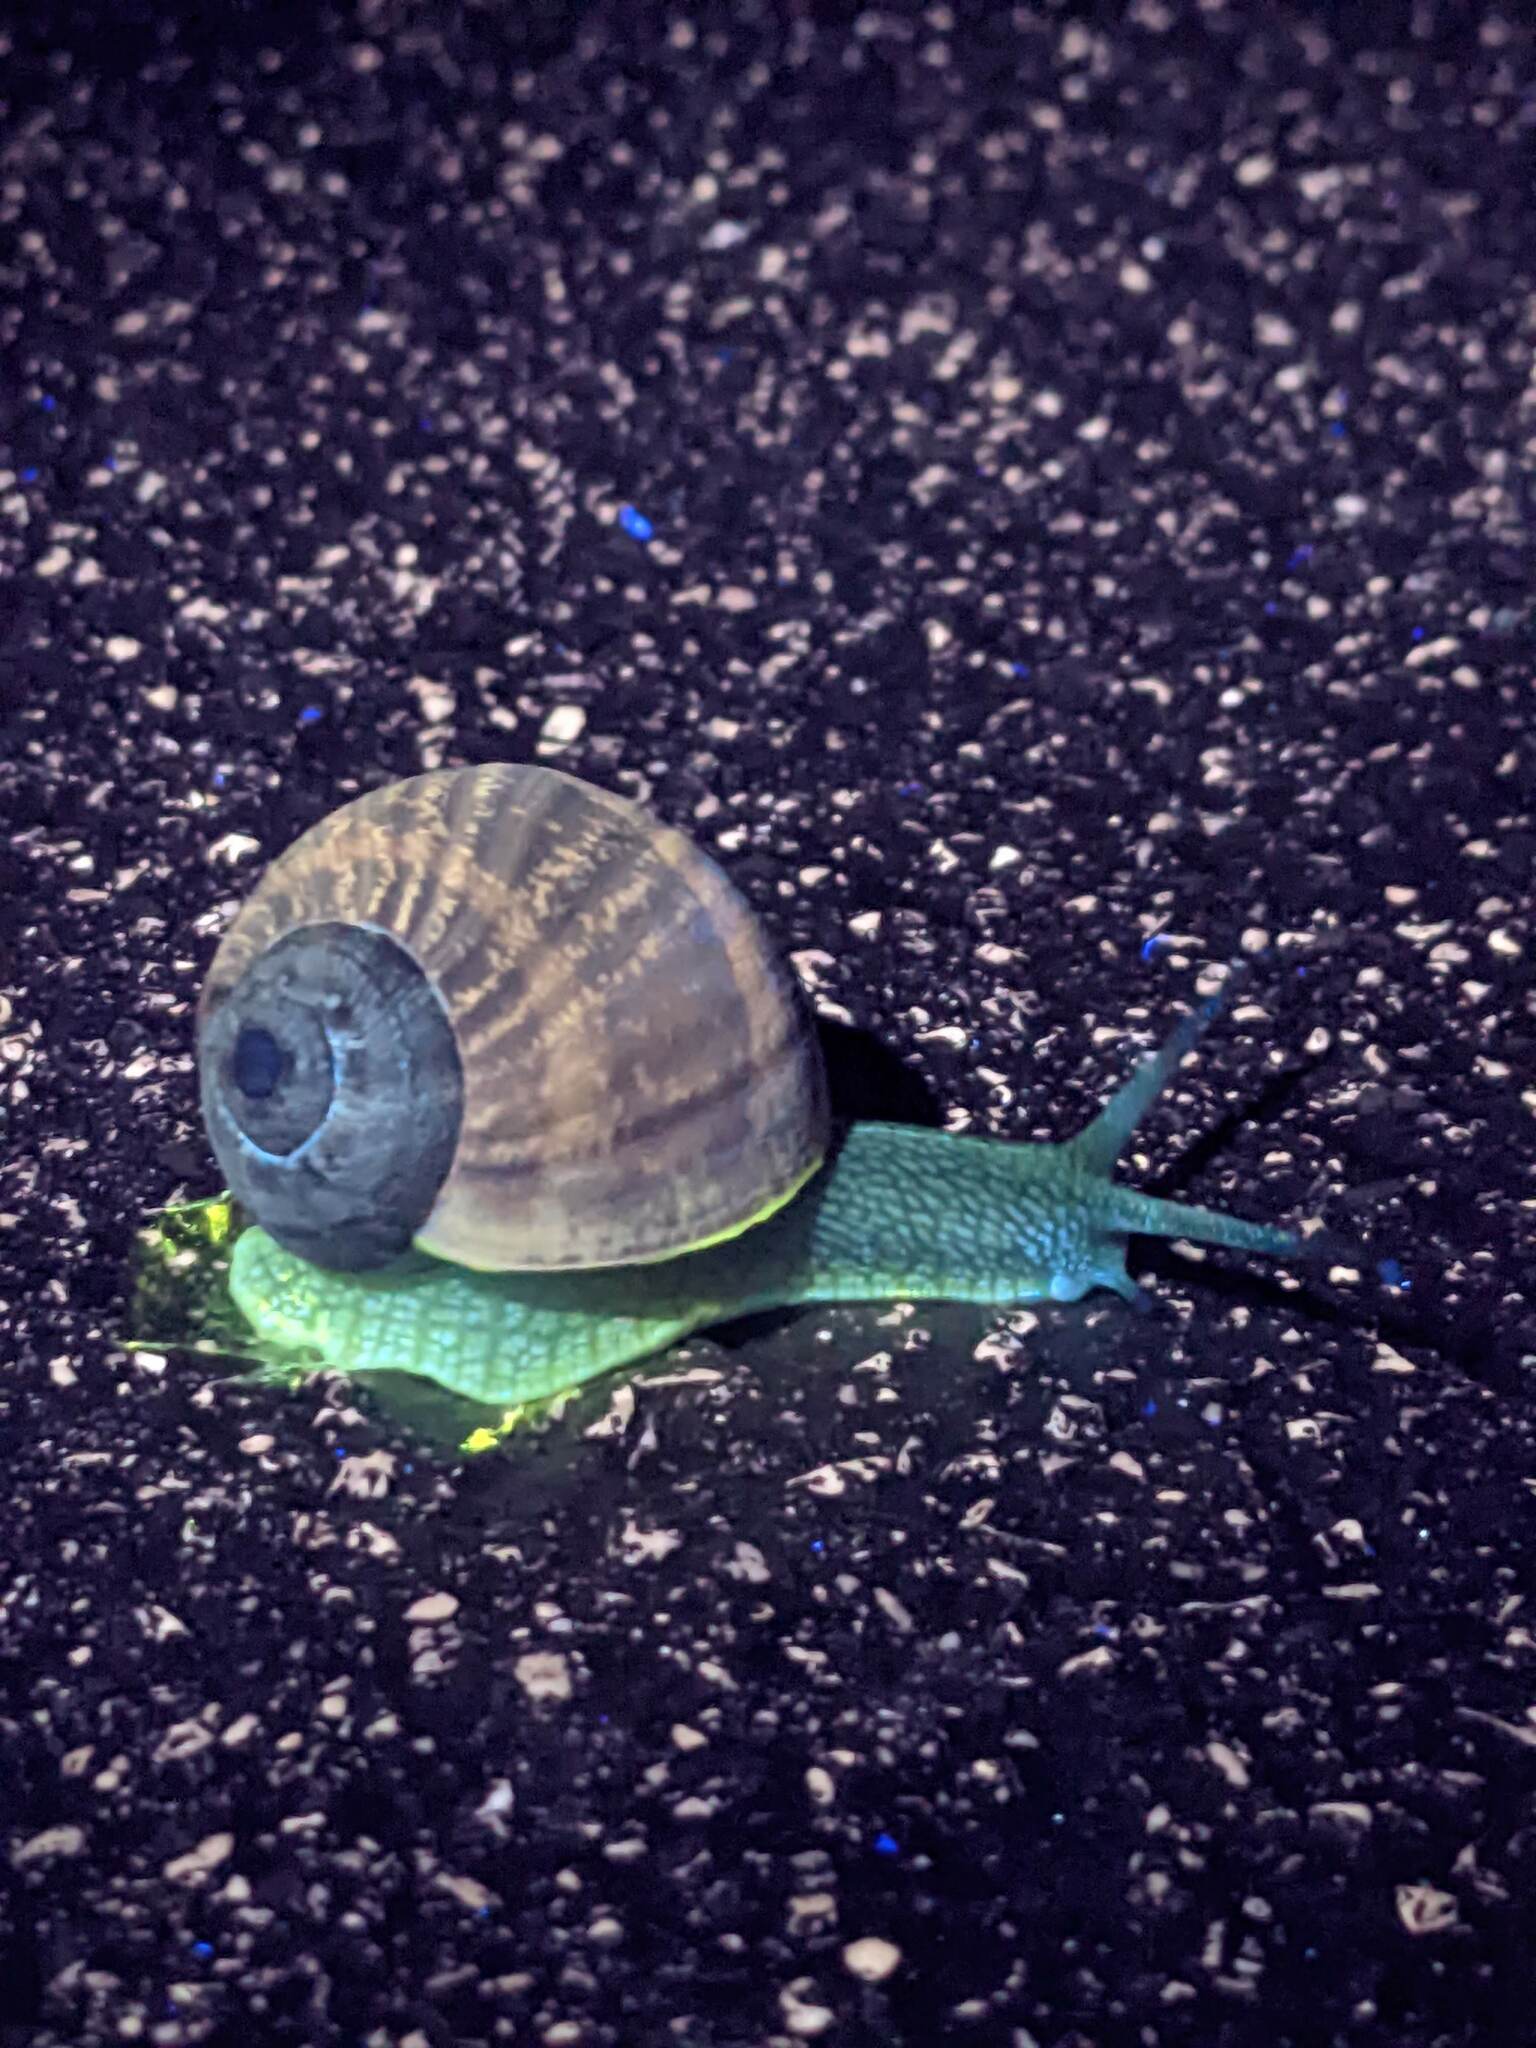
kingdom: Animalia
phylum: Mollusca
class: Gastropoda
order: Stylommatophora
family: Helicidae
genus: Cornu
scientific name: Cornu aspersum
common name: Brown garden snail
